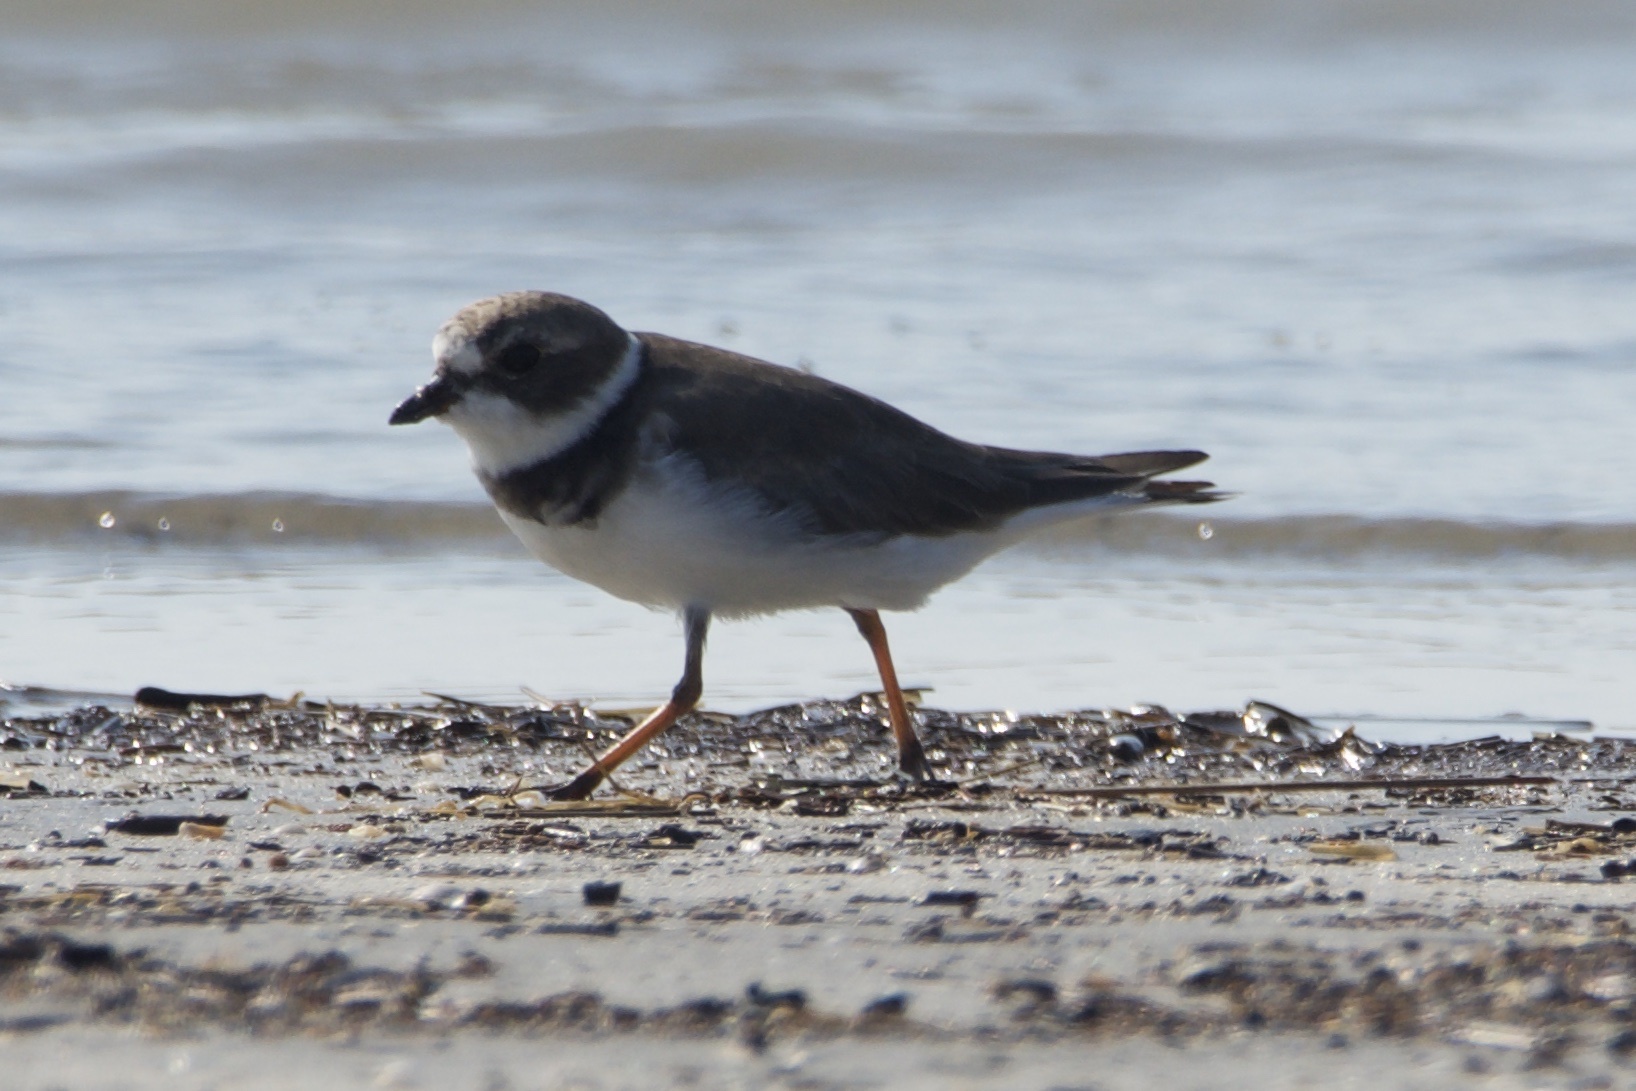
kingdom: Animalia
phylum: Chordata
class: Aves
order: Charadriiformes
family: Charadriidae
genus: Charadrius
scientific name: Charadrius semipalmatus
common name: Semipalmated plover
